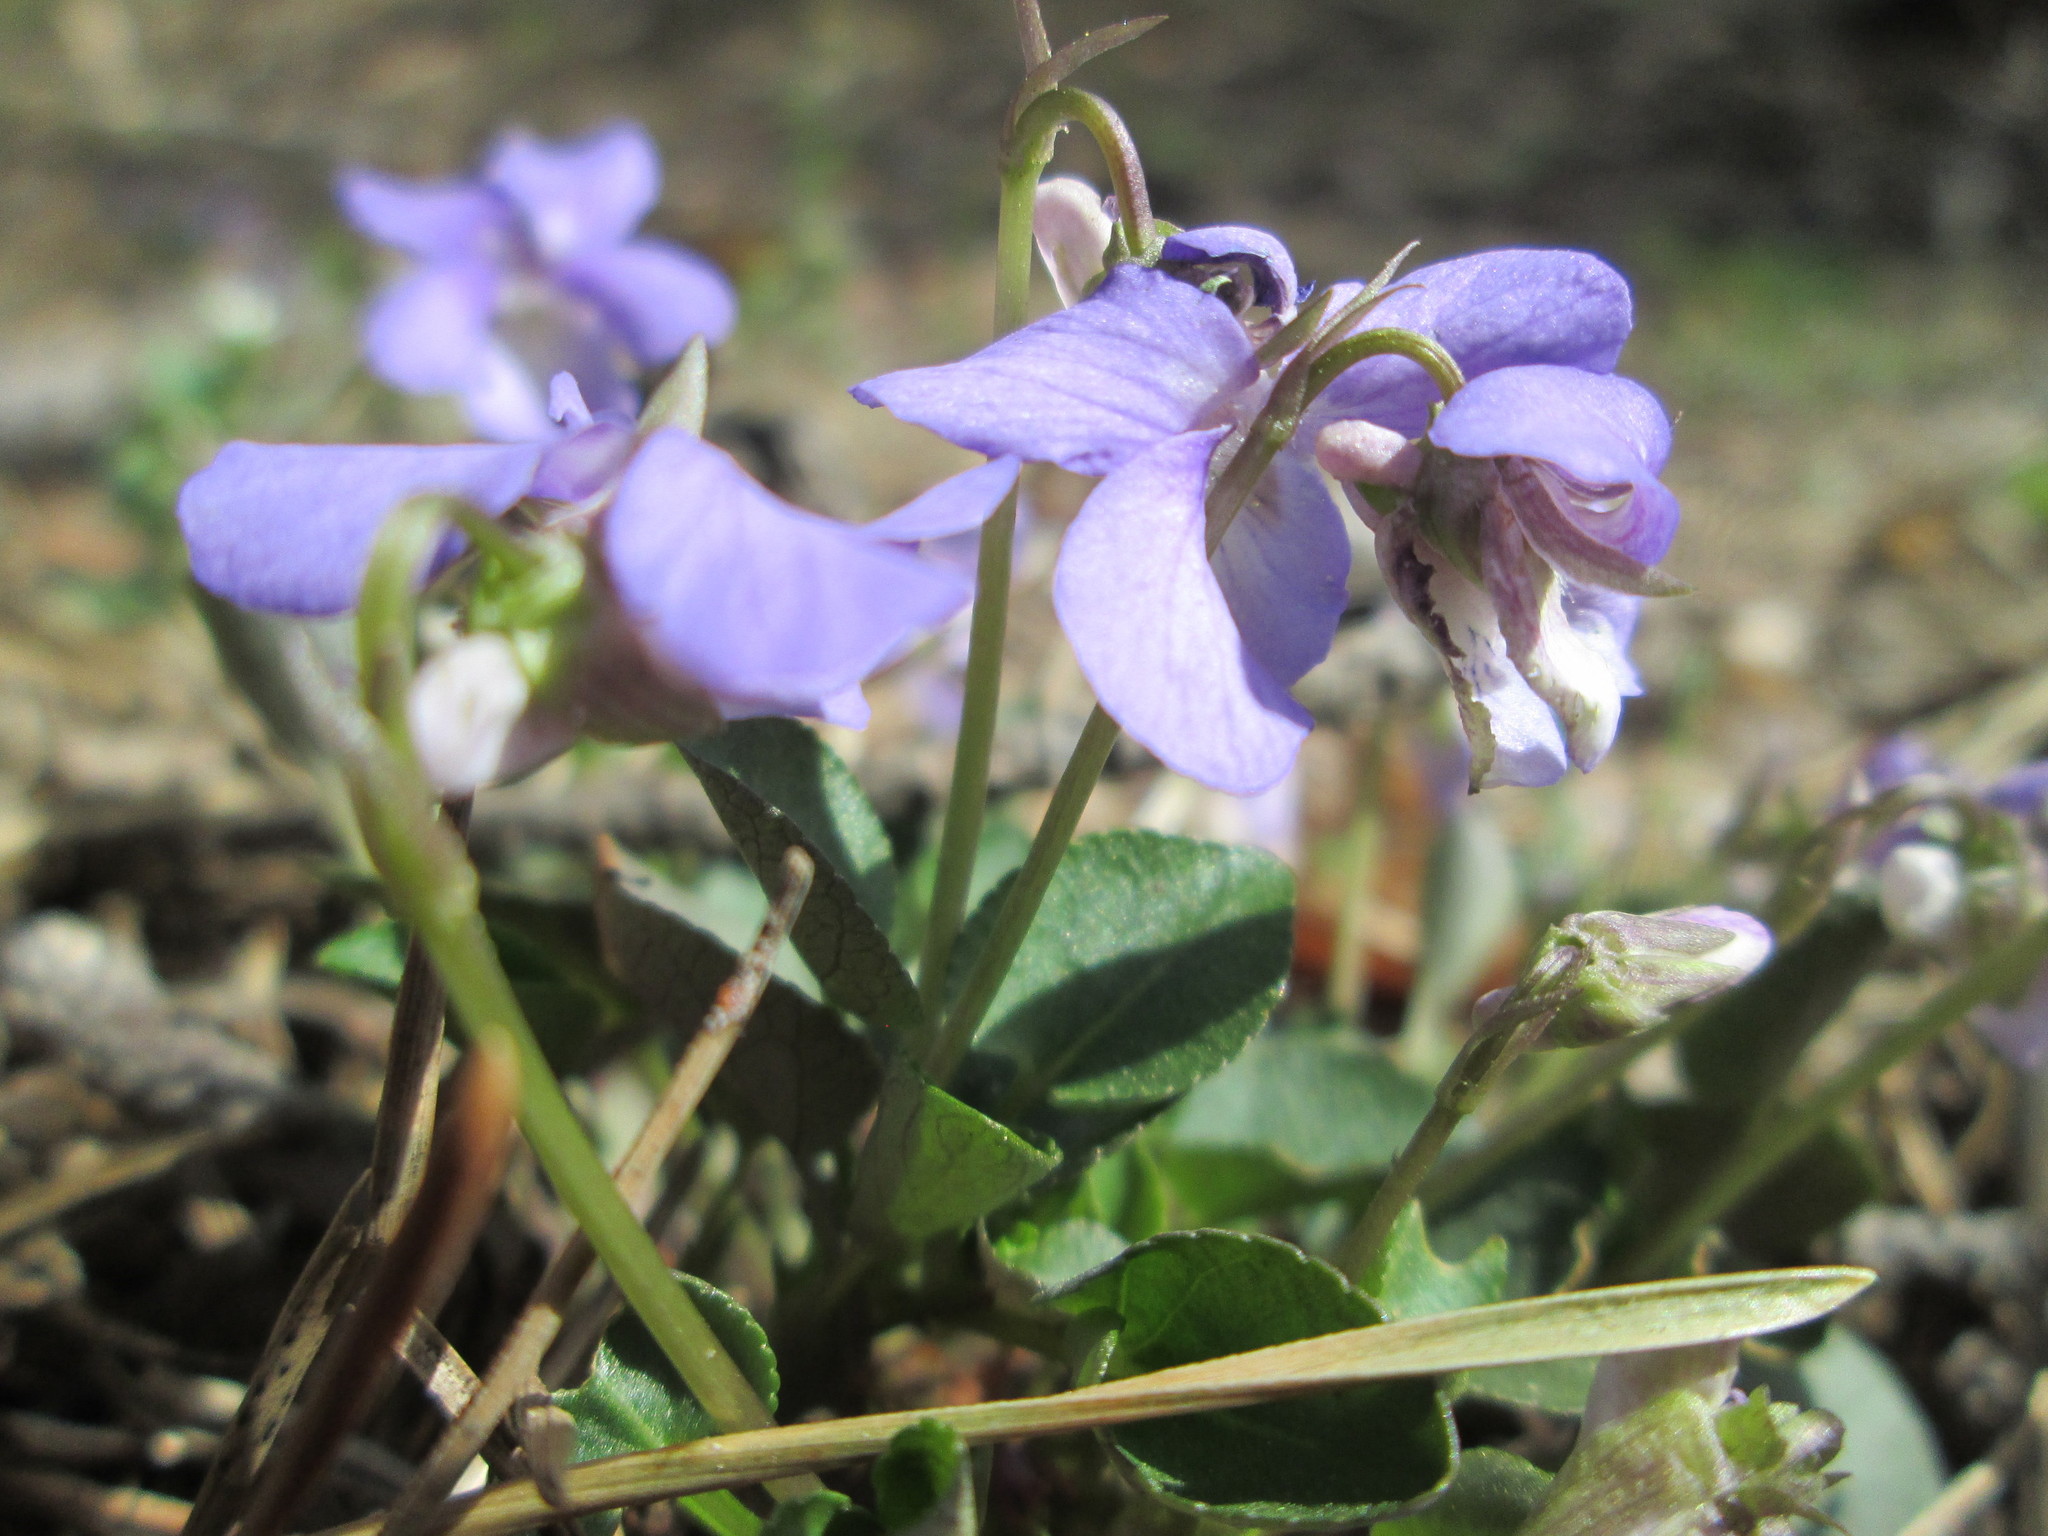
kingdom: Plantae
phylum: Tracheophyta
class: Magnoliopsida
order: Malpighiales
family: Violaceae
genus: Viola
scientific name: Viola riviniana
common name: Common dog-violet
